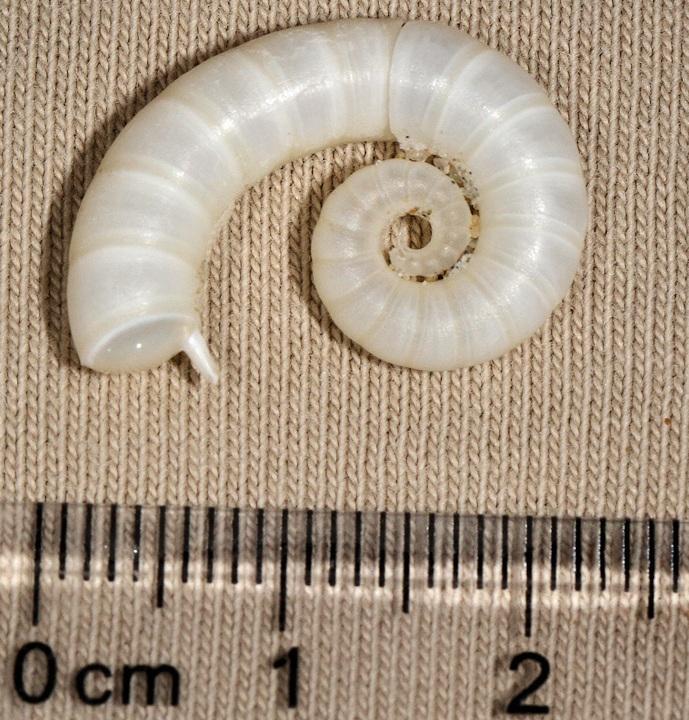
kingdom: Animalia
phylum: Mollusca
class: Cephalopoda
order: Spirulida
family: Spirulidae
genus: Spirula
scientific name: Spirula spirula
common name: Ram's horn squid
